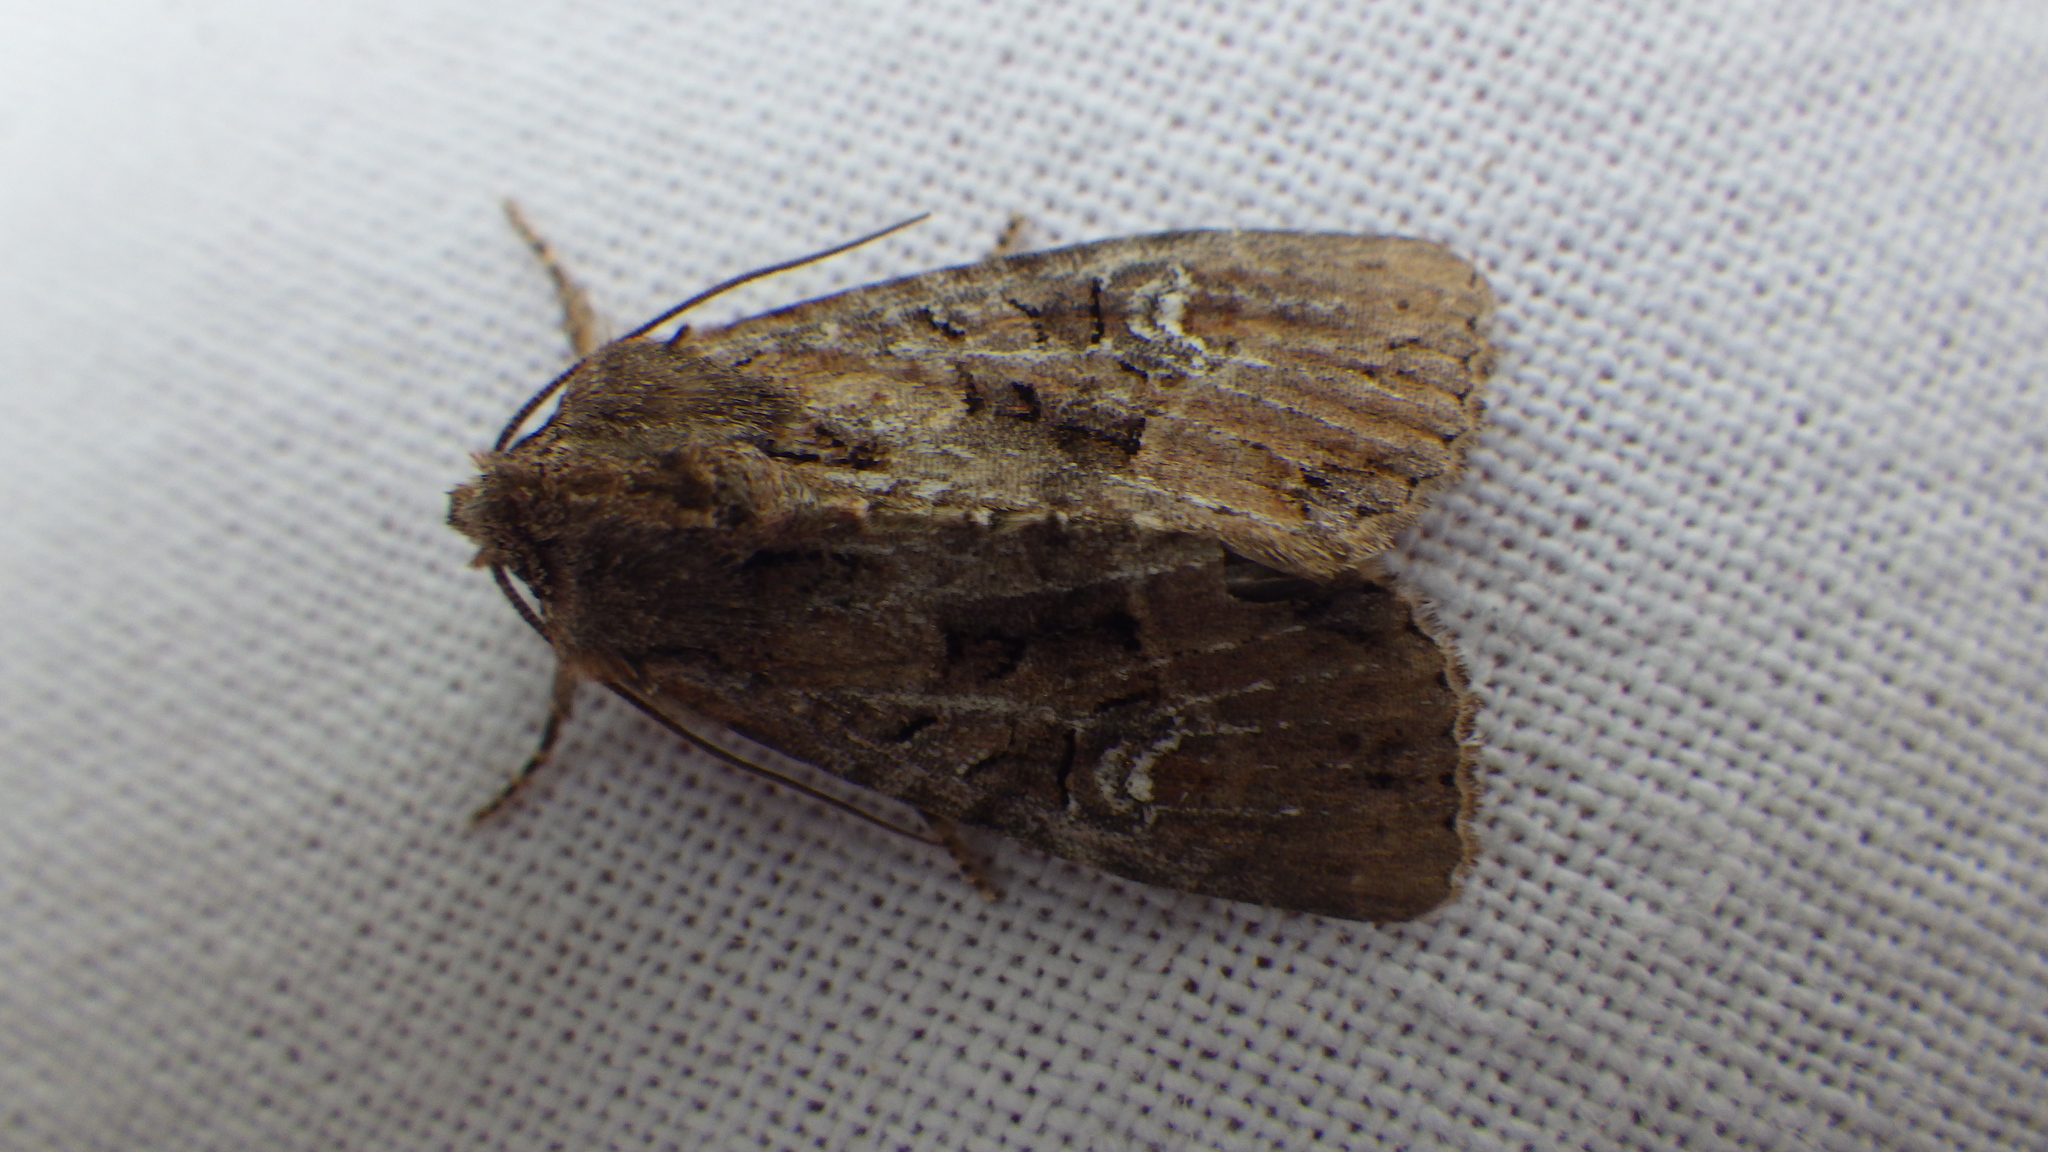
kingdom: Animalia
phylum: Arthropoda
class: Insecta
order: Lepidoptera
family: Noctuidae
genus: Mesapamea
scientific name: Mesapamea
